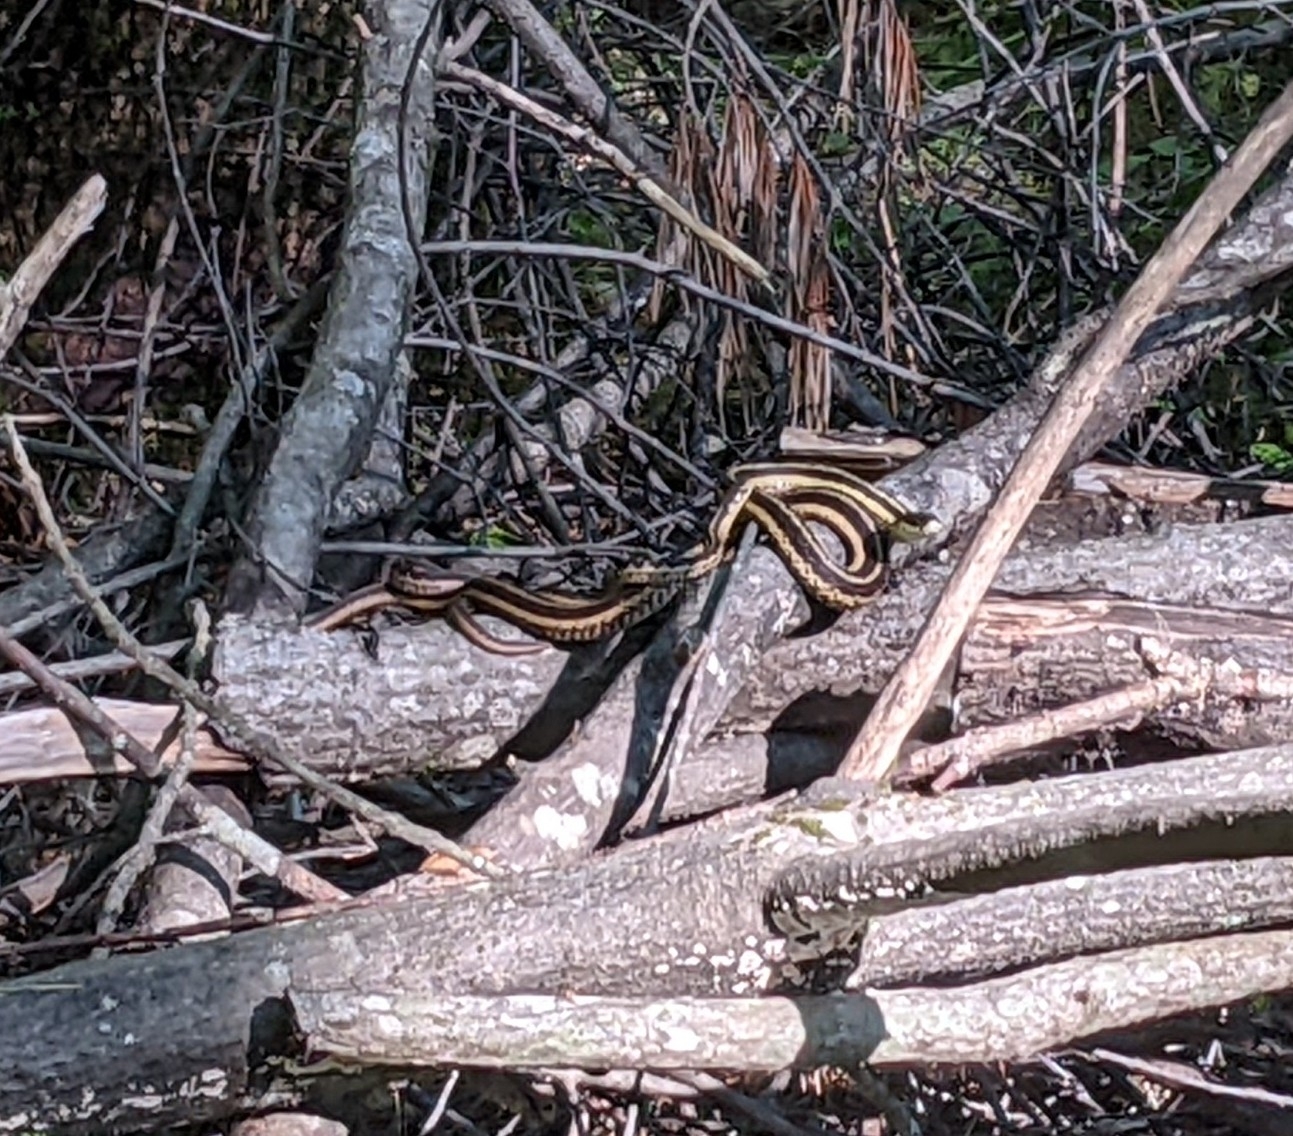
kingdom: Animalia
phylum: Chordata
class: Squamata
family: Colubridae
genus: Thamnophis
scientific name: Thamnophis sirtalis
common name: Common garter snake
